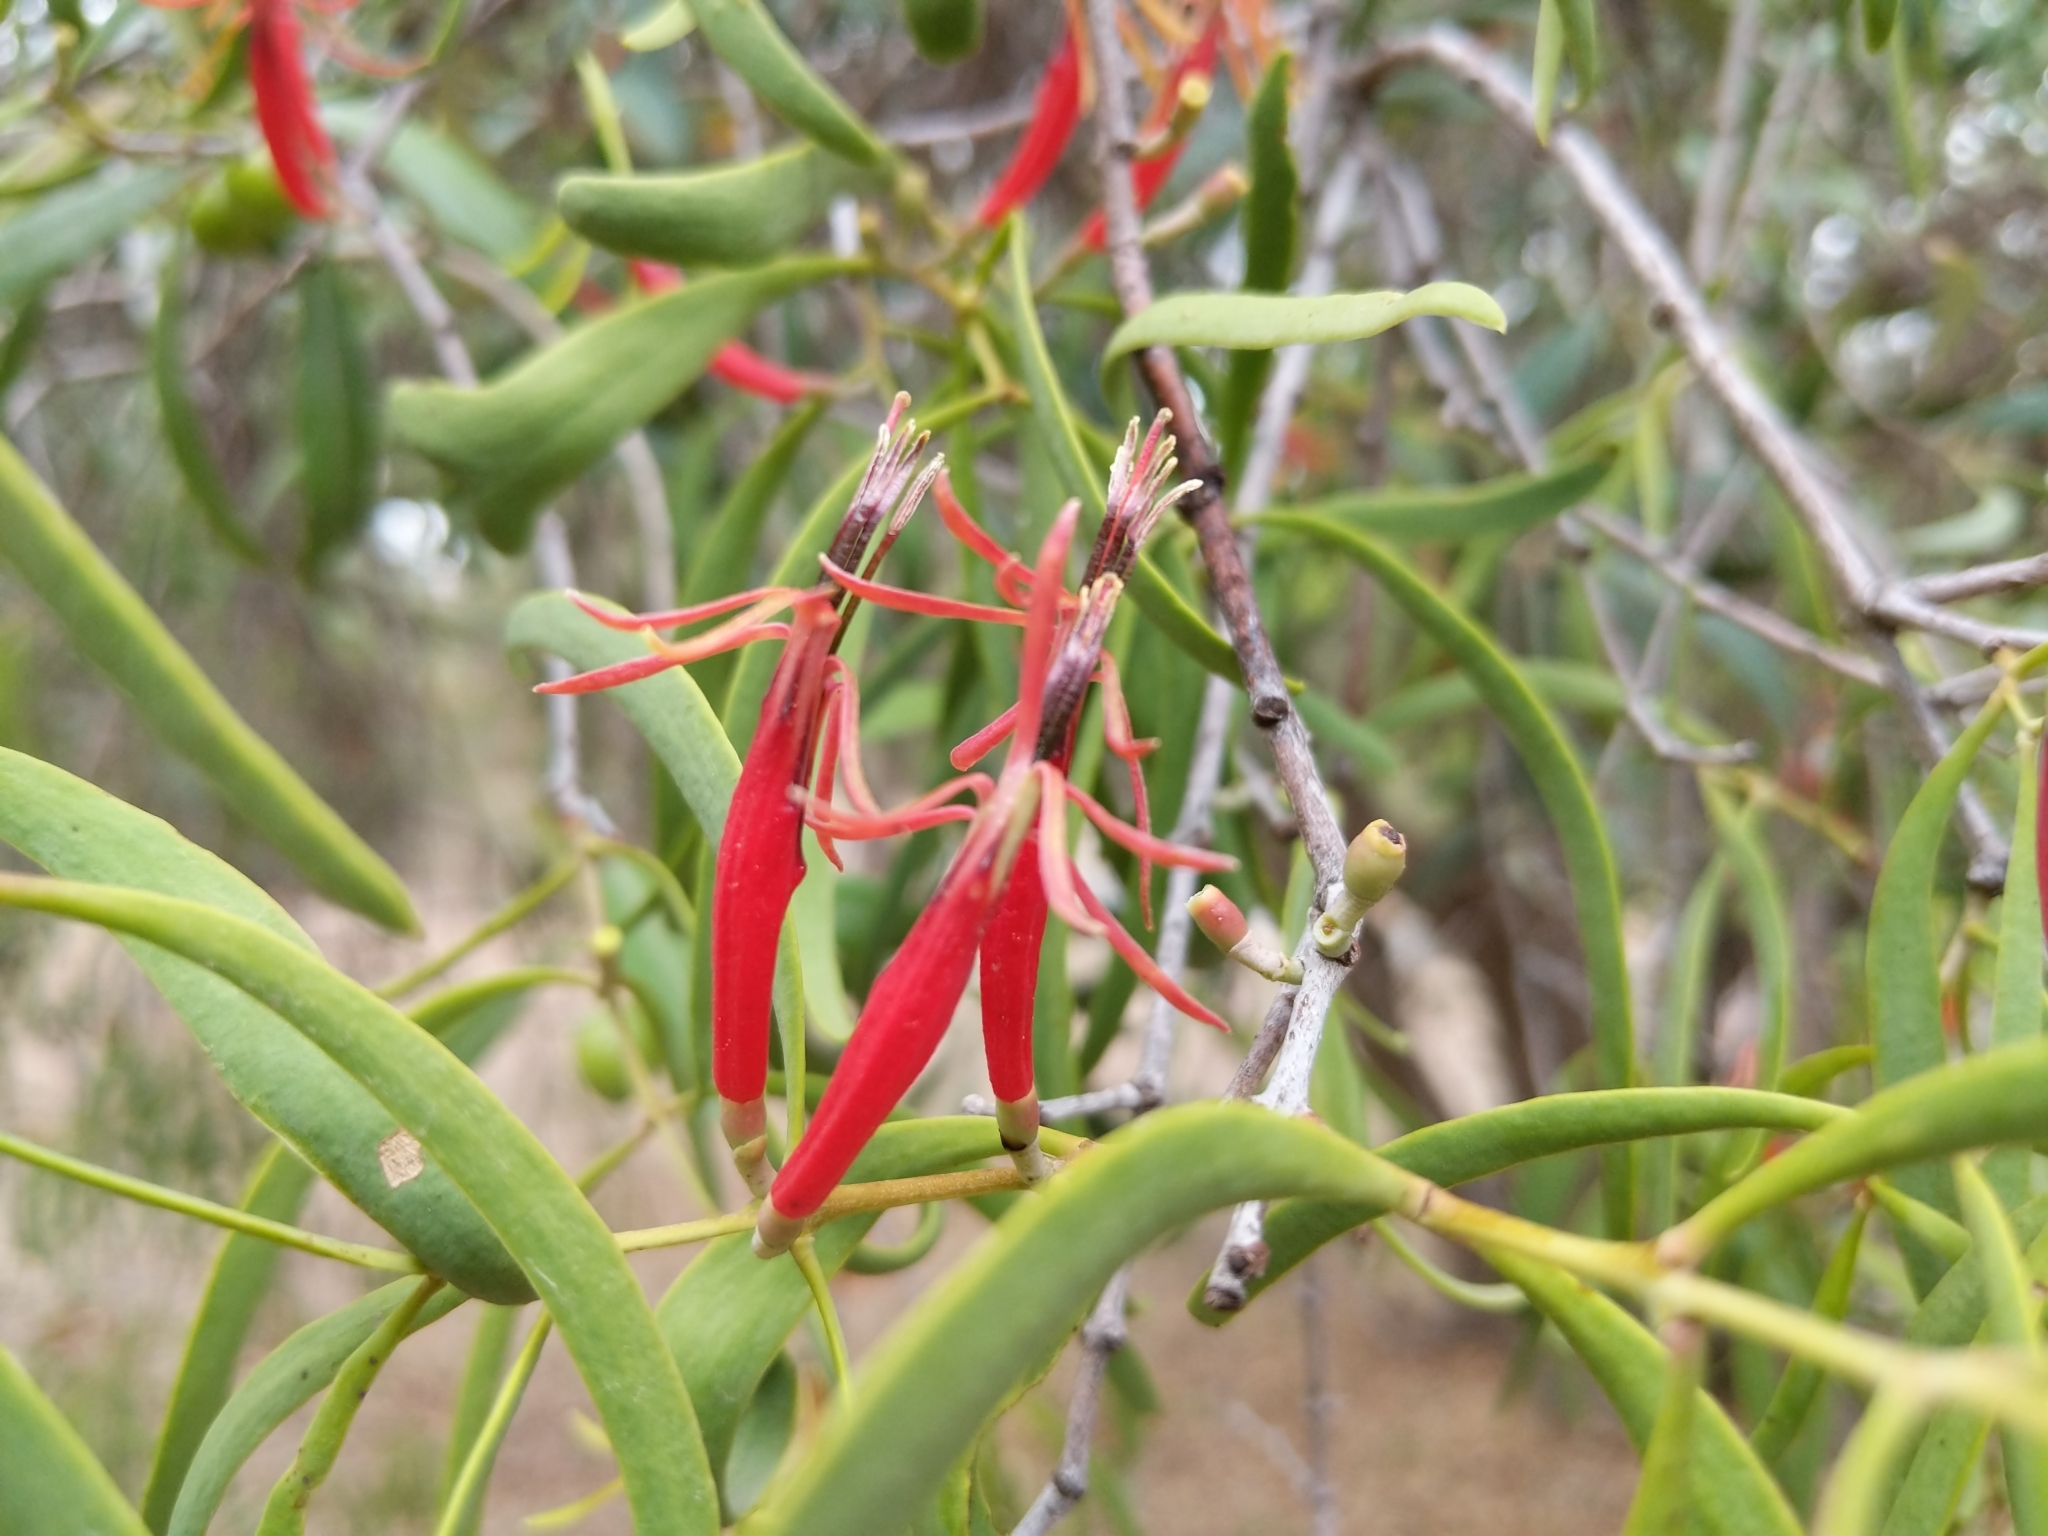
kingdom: Plantae
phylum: Tracheophyta
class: Magnoliopsida
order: Santalales
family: Loranthaceae
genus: Lysiana
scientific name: Lysiana exocarpi
